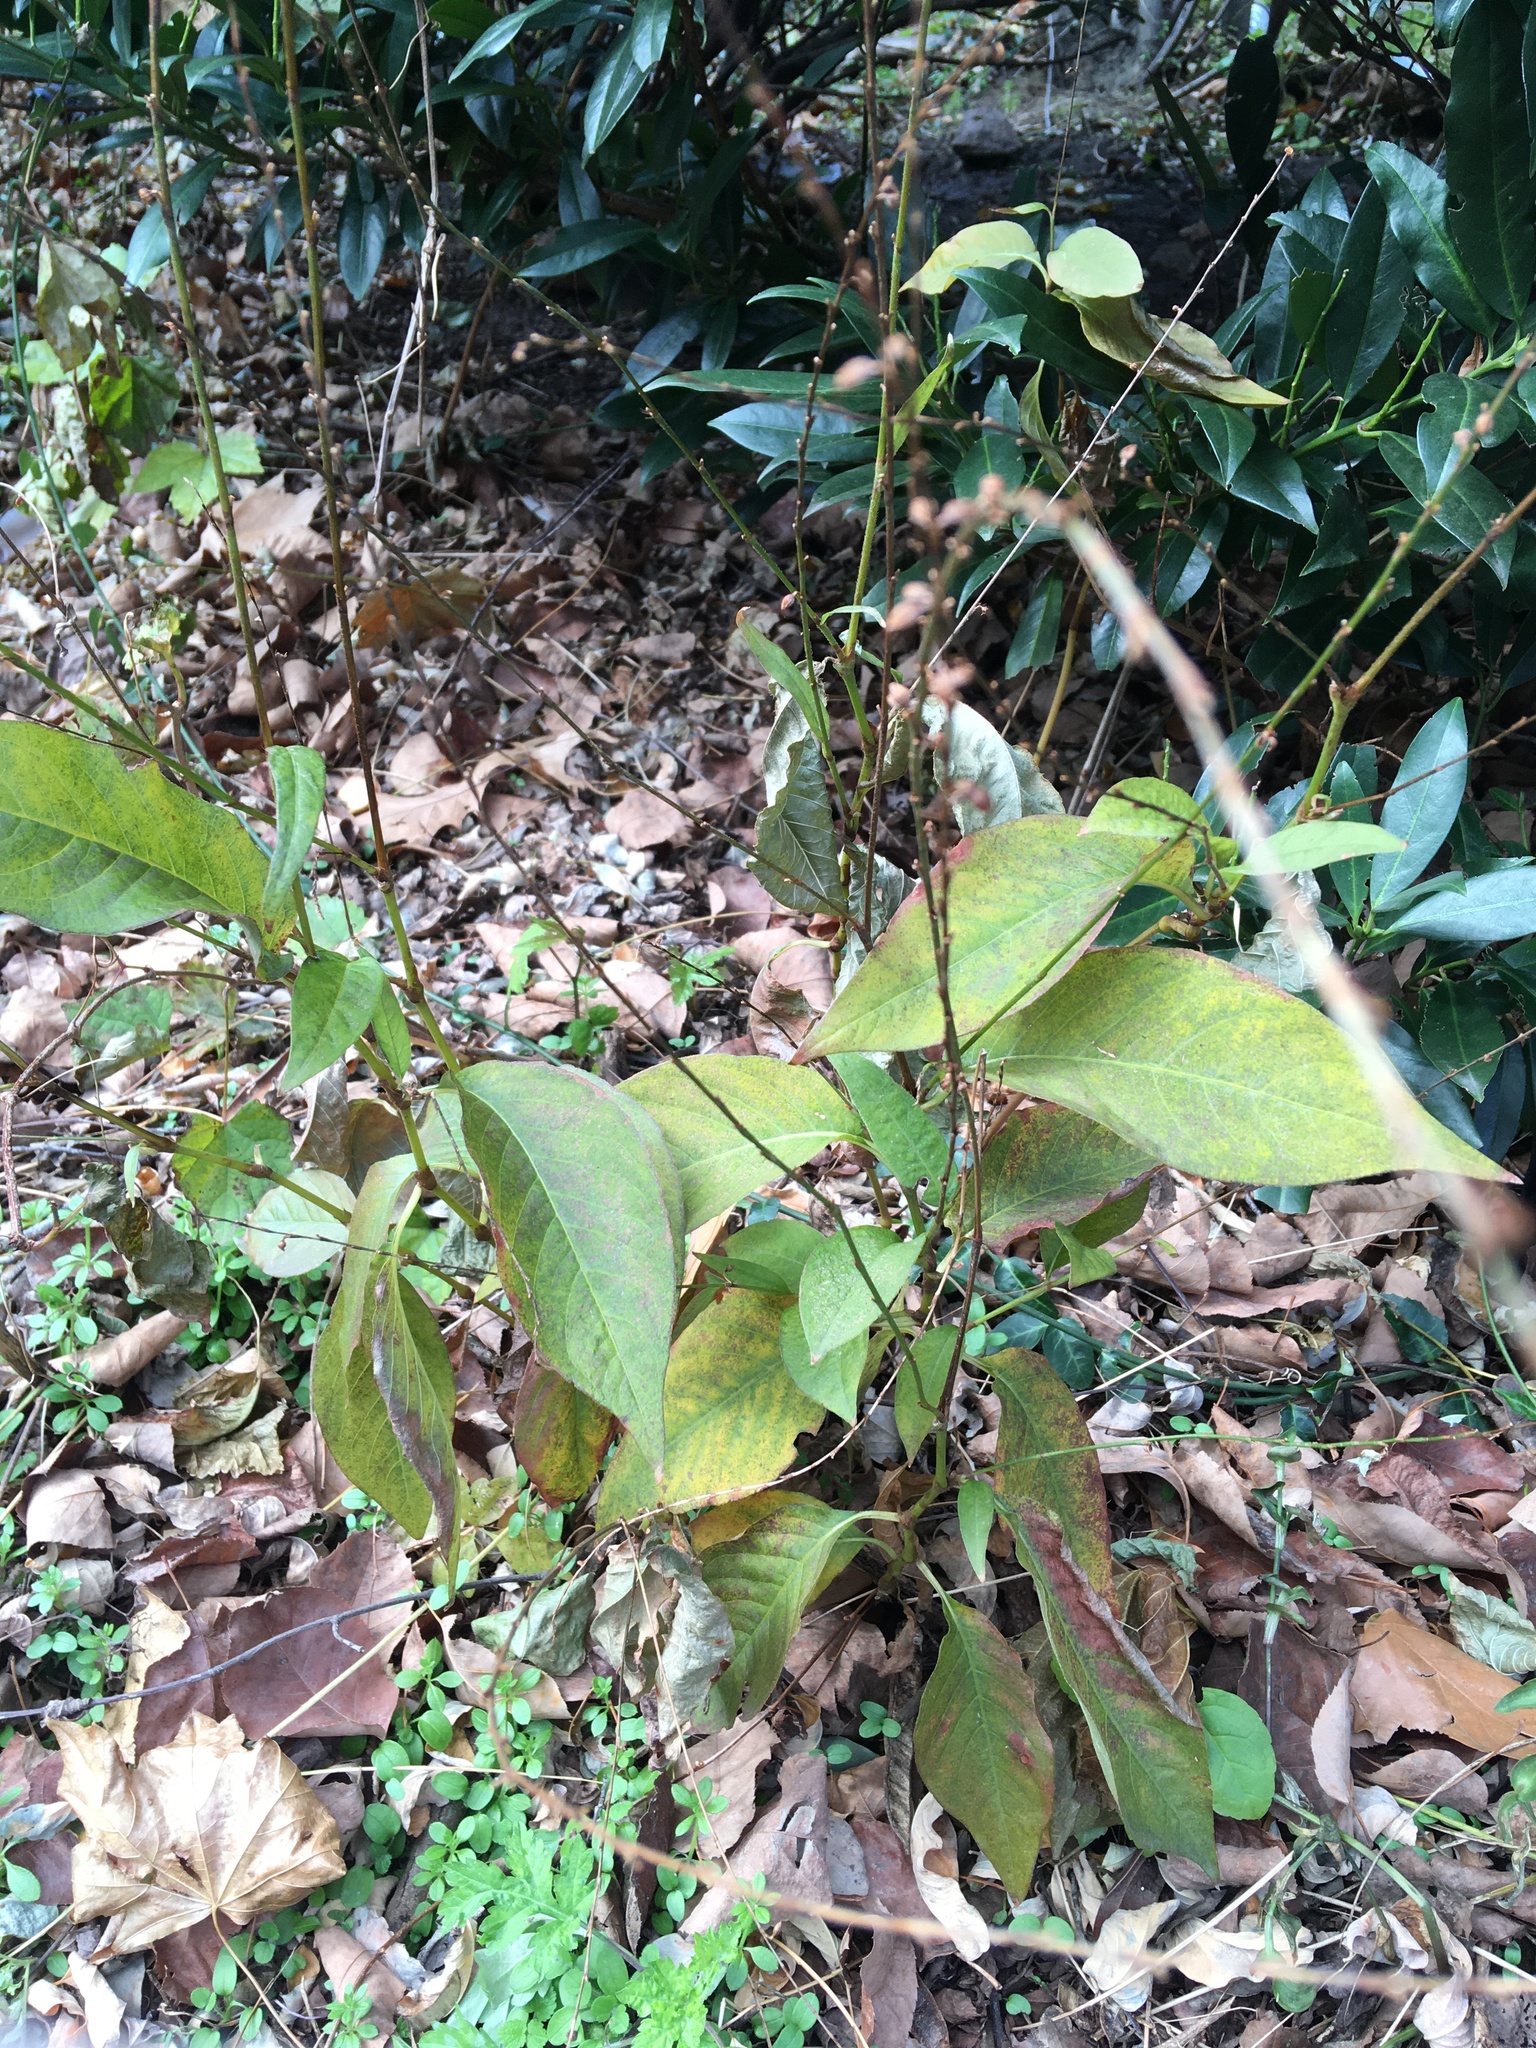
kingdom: Plantae
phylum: Tracheophyta
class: Magnoliopsida
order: Caryophyllales
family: Polygonaceae
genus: Persicaria
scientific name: Persicaria virginiana
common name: Jumpseed
